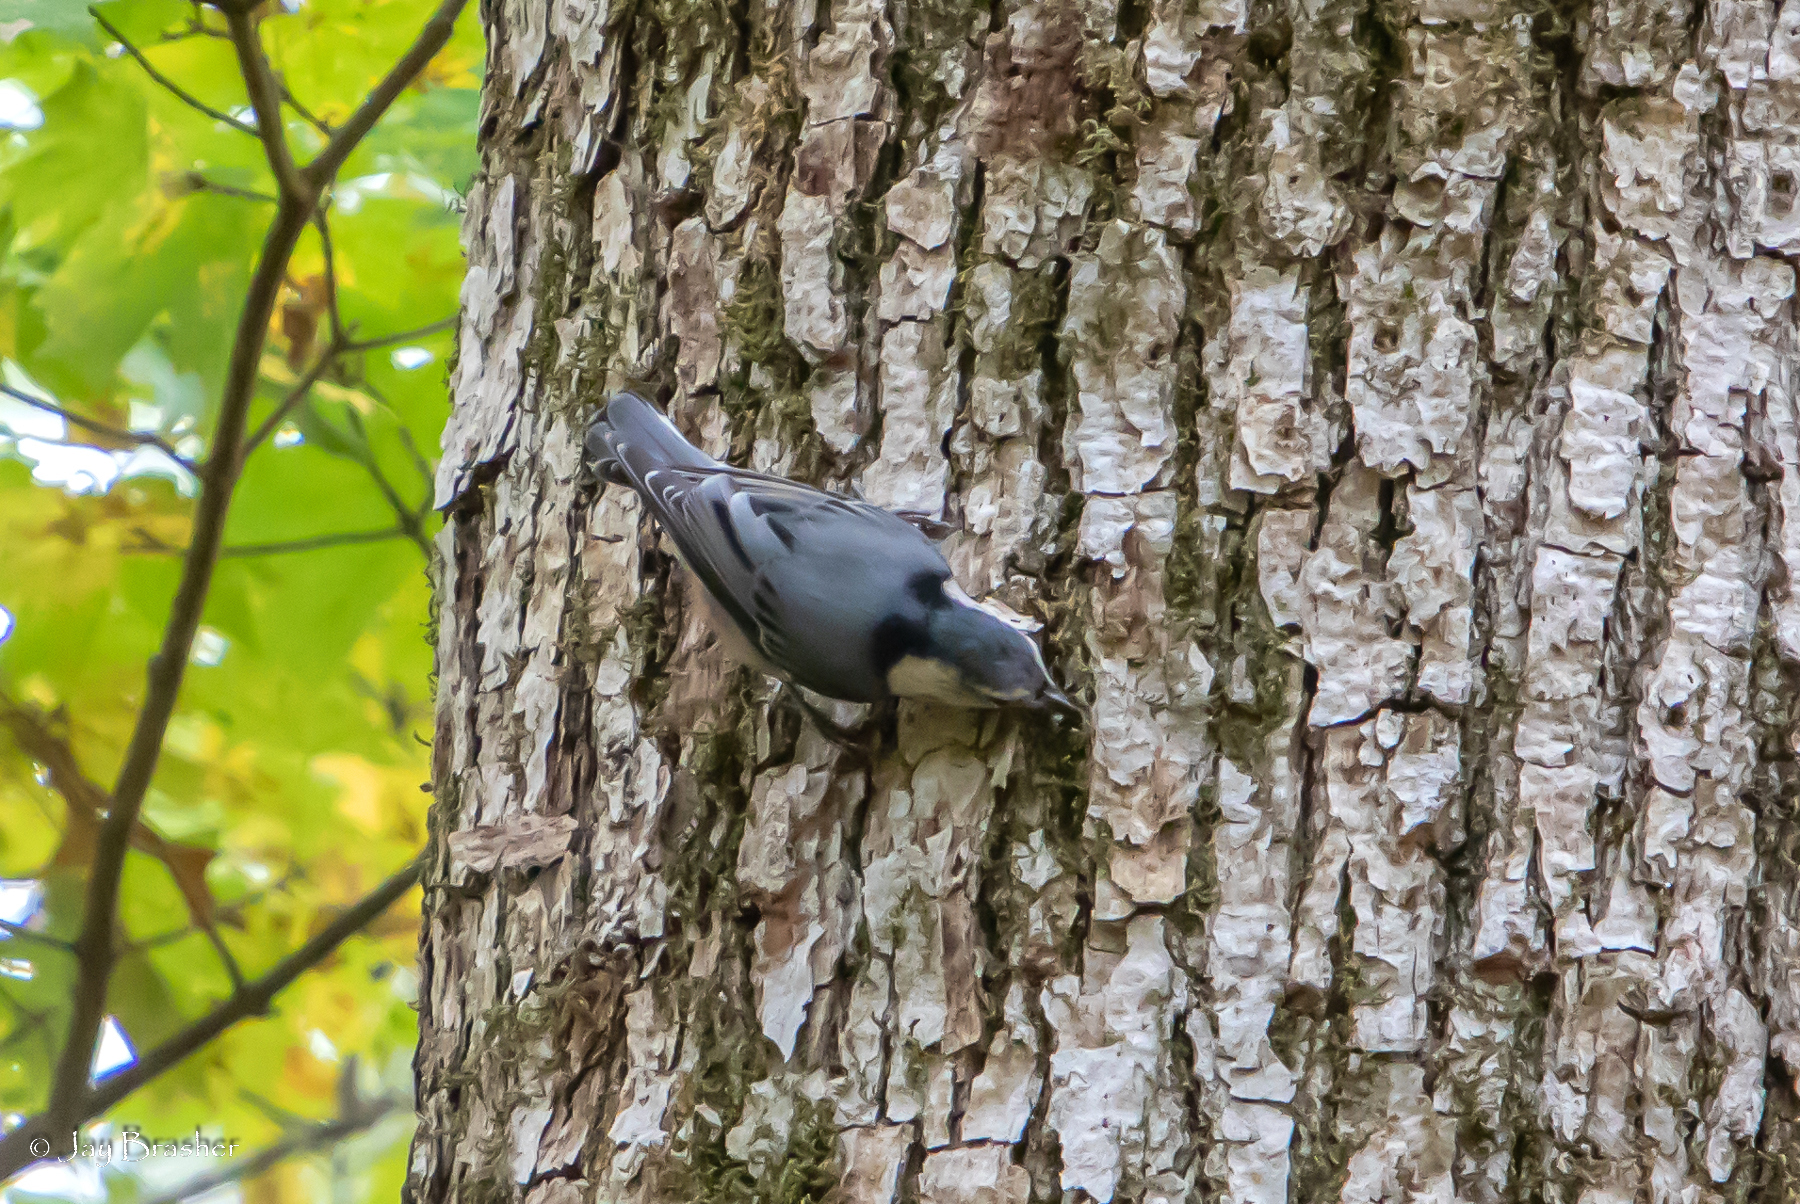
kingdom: Animalia
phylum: Chordata
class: Aves
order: Passeriformes
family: Sittidae
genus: Sitta
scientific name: Sitta carolinensis
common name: White-breasted nuthatch
